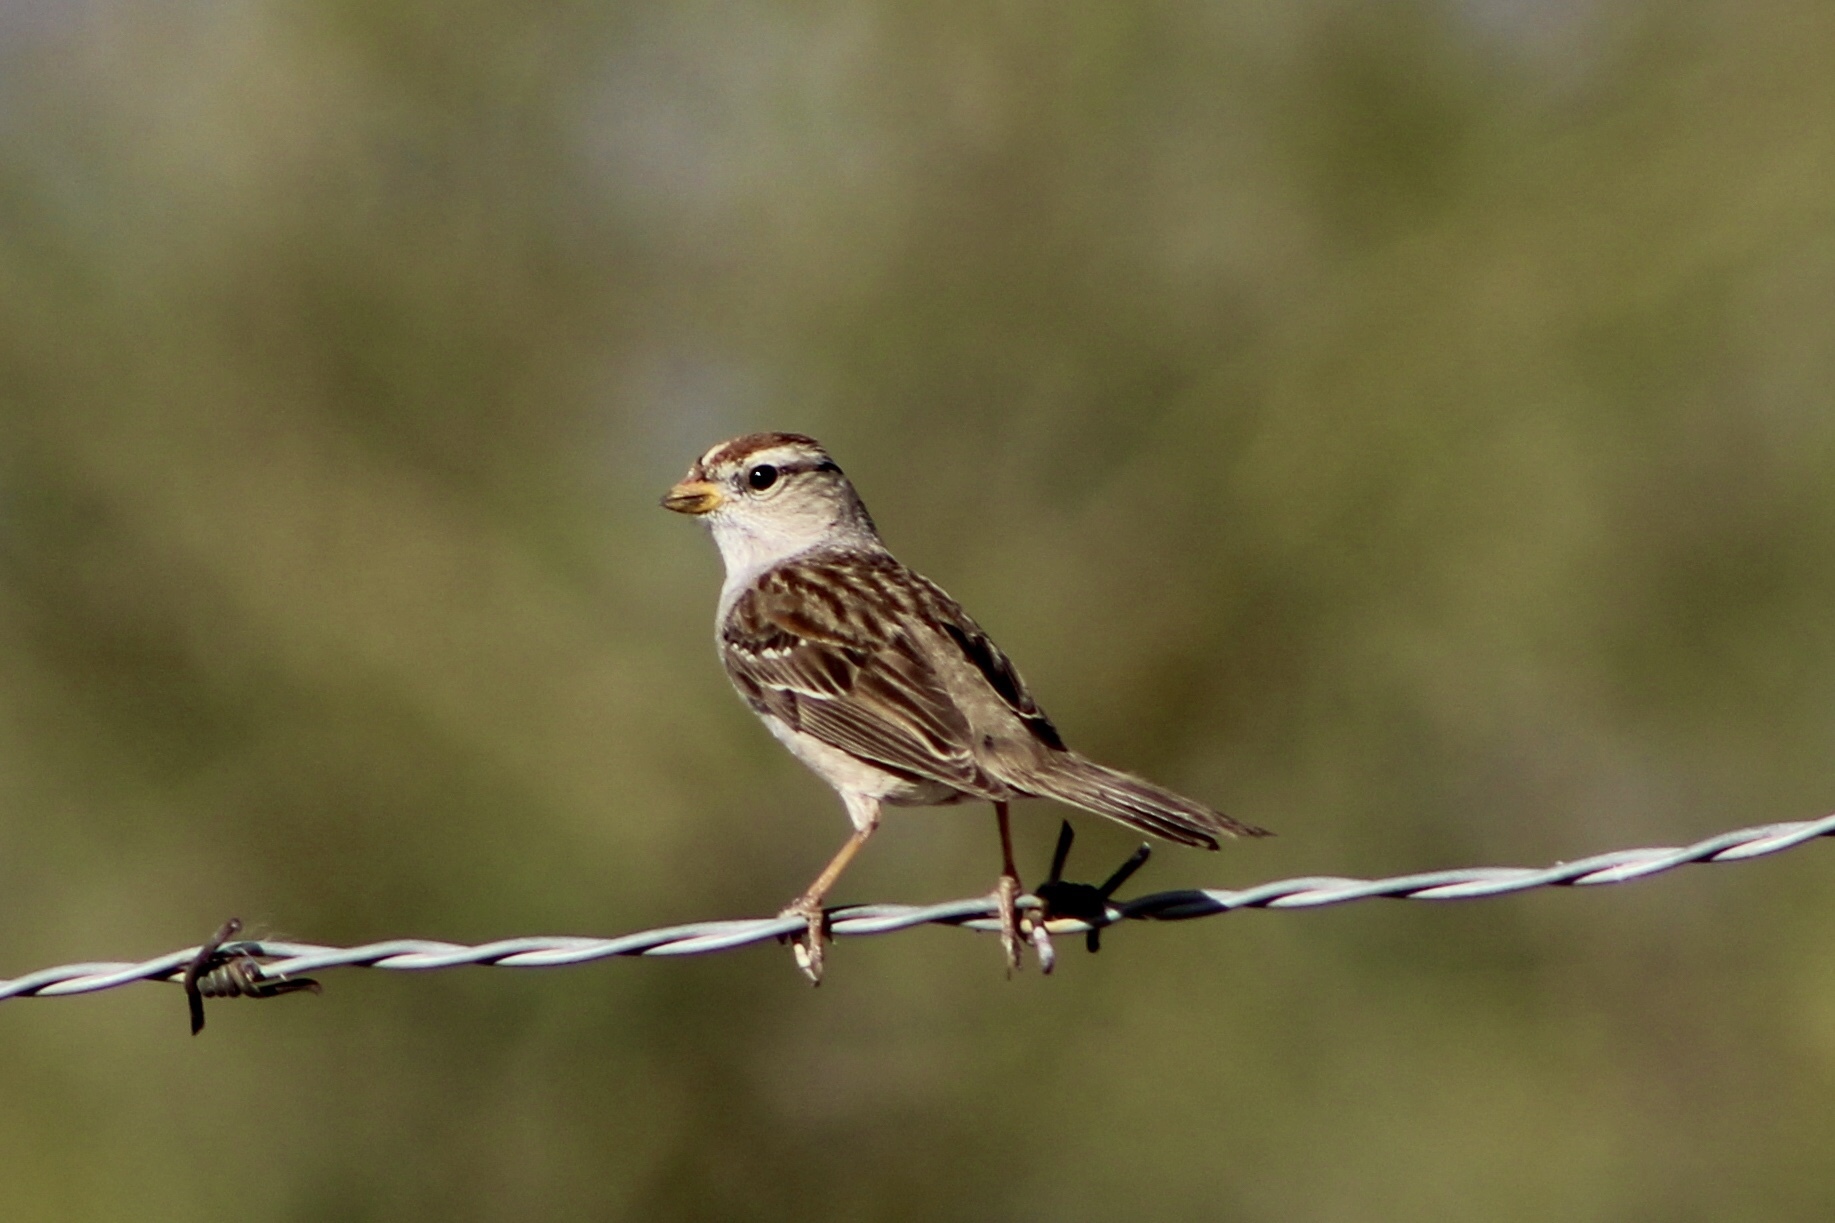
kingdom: Animalia
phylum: Chordata
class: Aves
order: Passeriformes
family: Passerellidae
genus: Zonotrichia
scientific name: Zonotrichia leucophrys
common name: White-crowned sparrow
